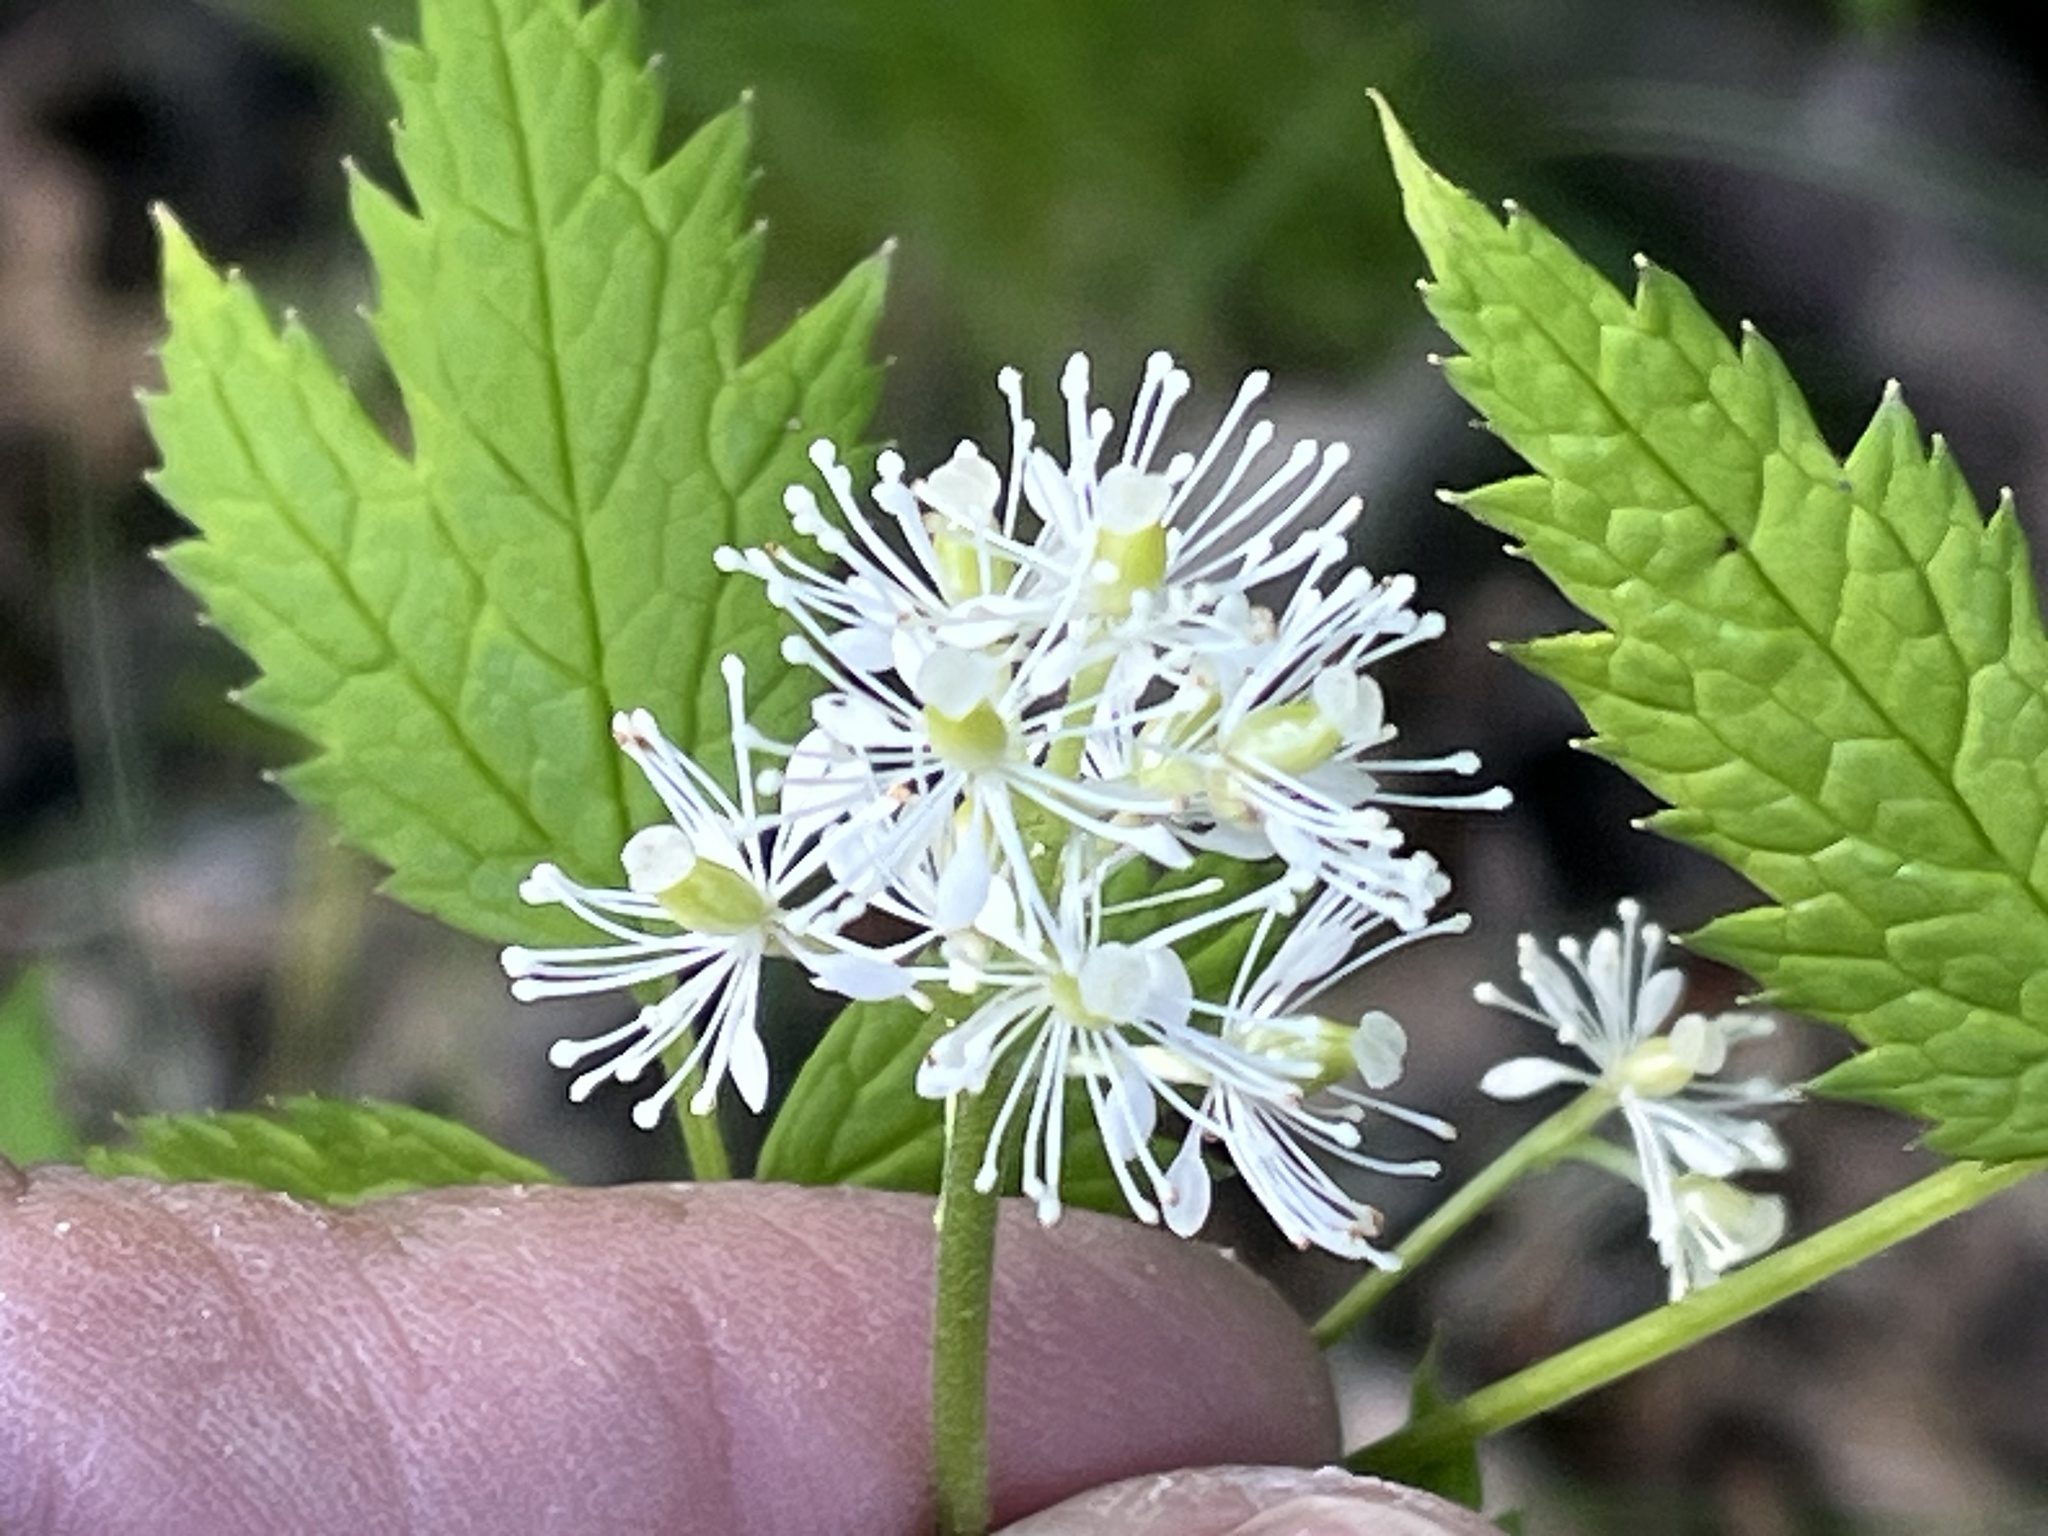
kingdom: Plantae
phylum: Tracheophyta
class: Magnoliopsida
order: Ranunculales
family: Ranunculaceae
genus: Actaea
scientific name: Actaea rubra
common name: Red baneberry
